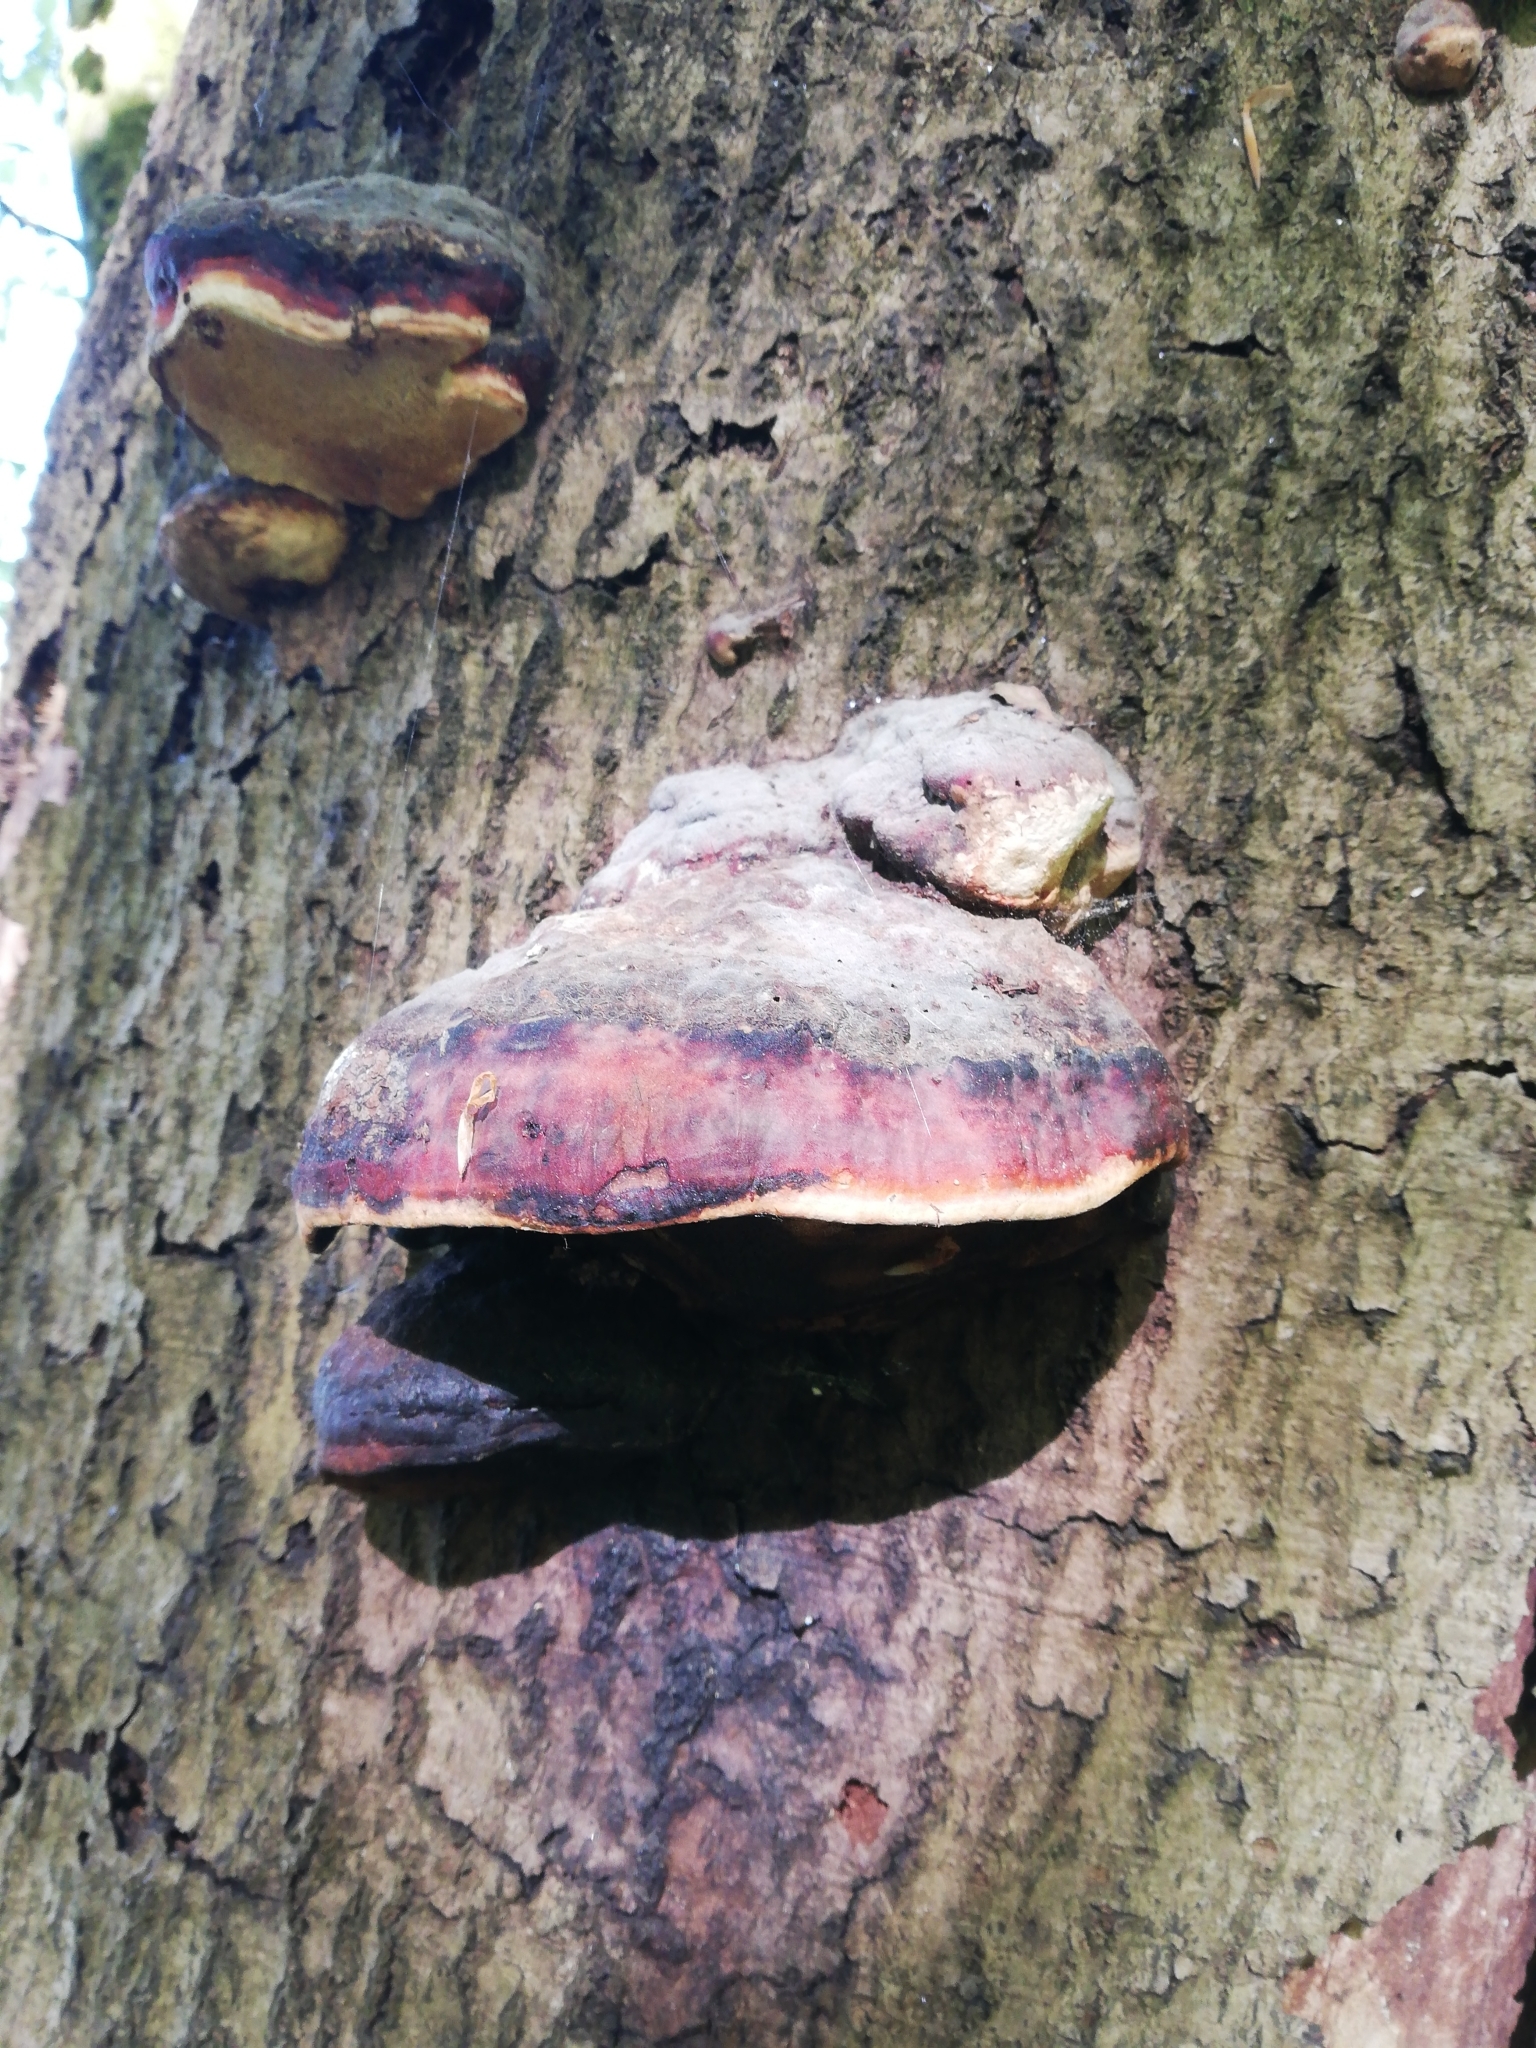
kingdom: Fungi
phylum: Basidiomycota
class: Agaricomycetes
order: Polyporales
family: Fomitopsidaceae
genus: Fomitopsis
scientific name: Fomitopsis pinicola
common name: Red-belted bracket
